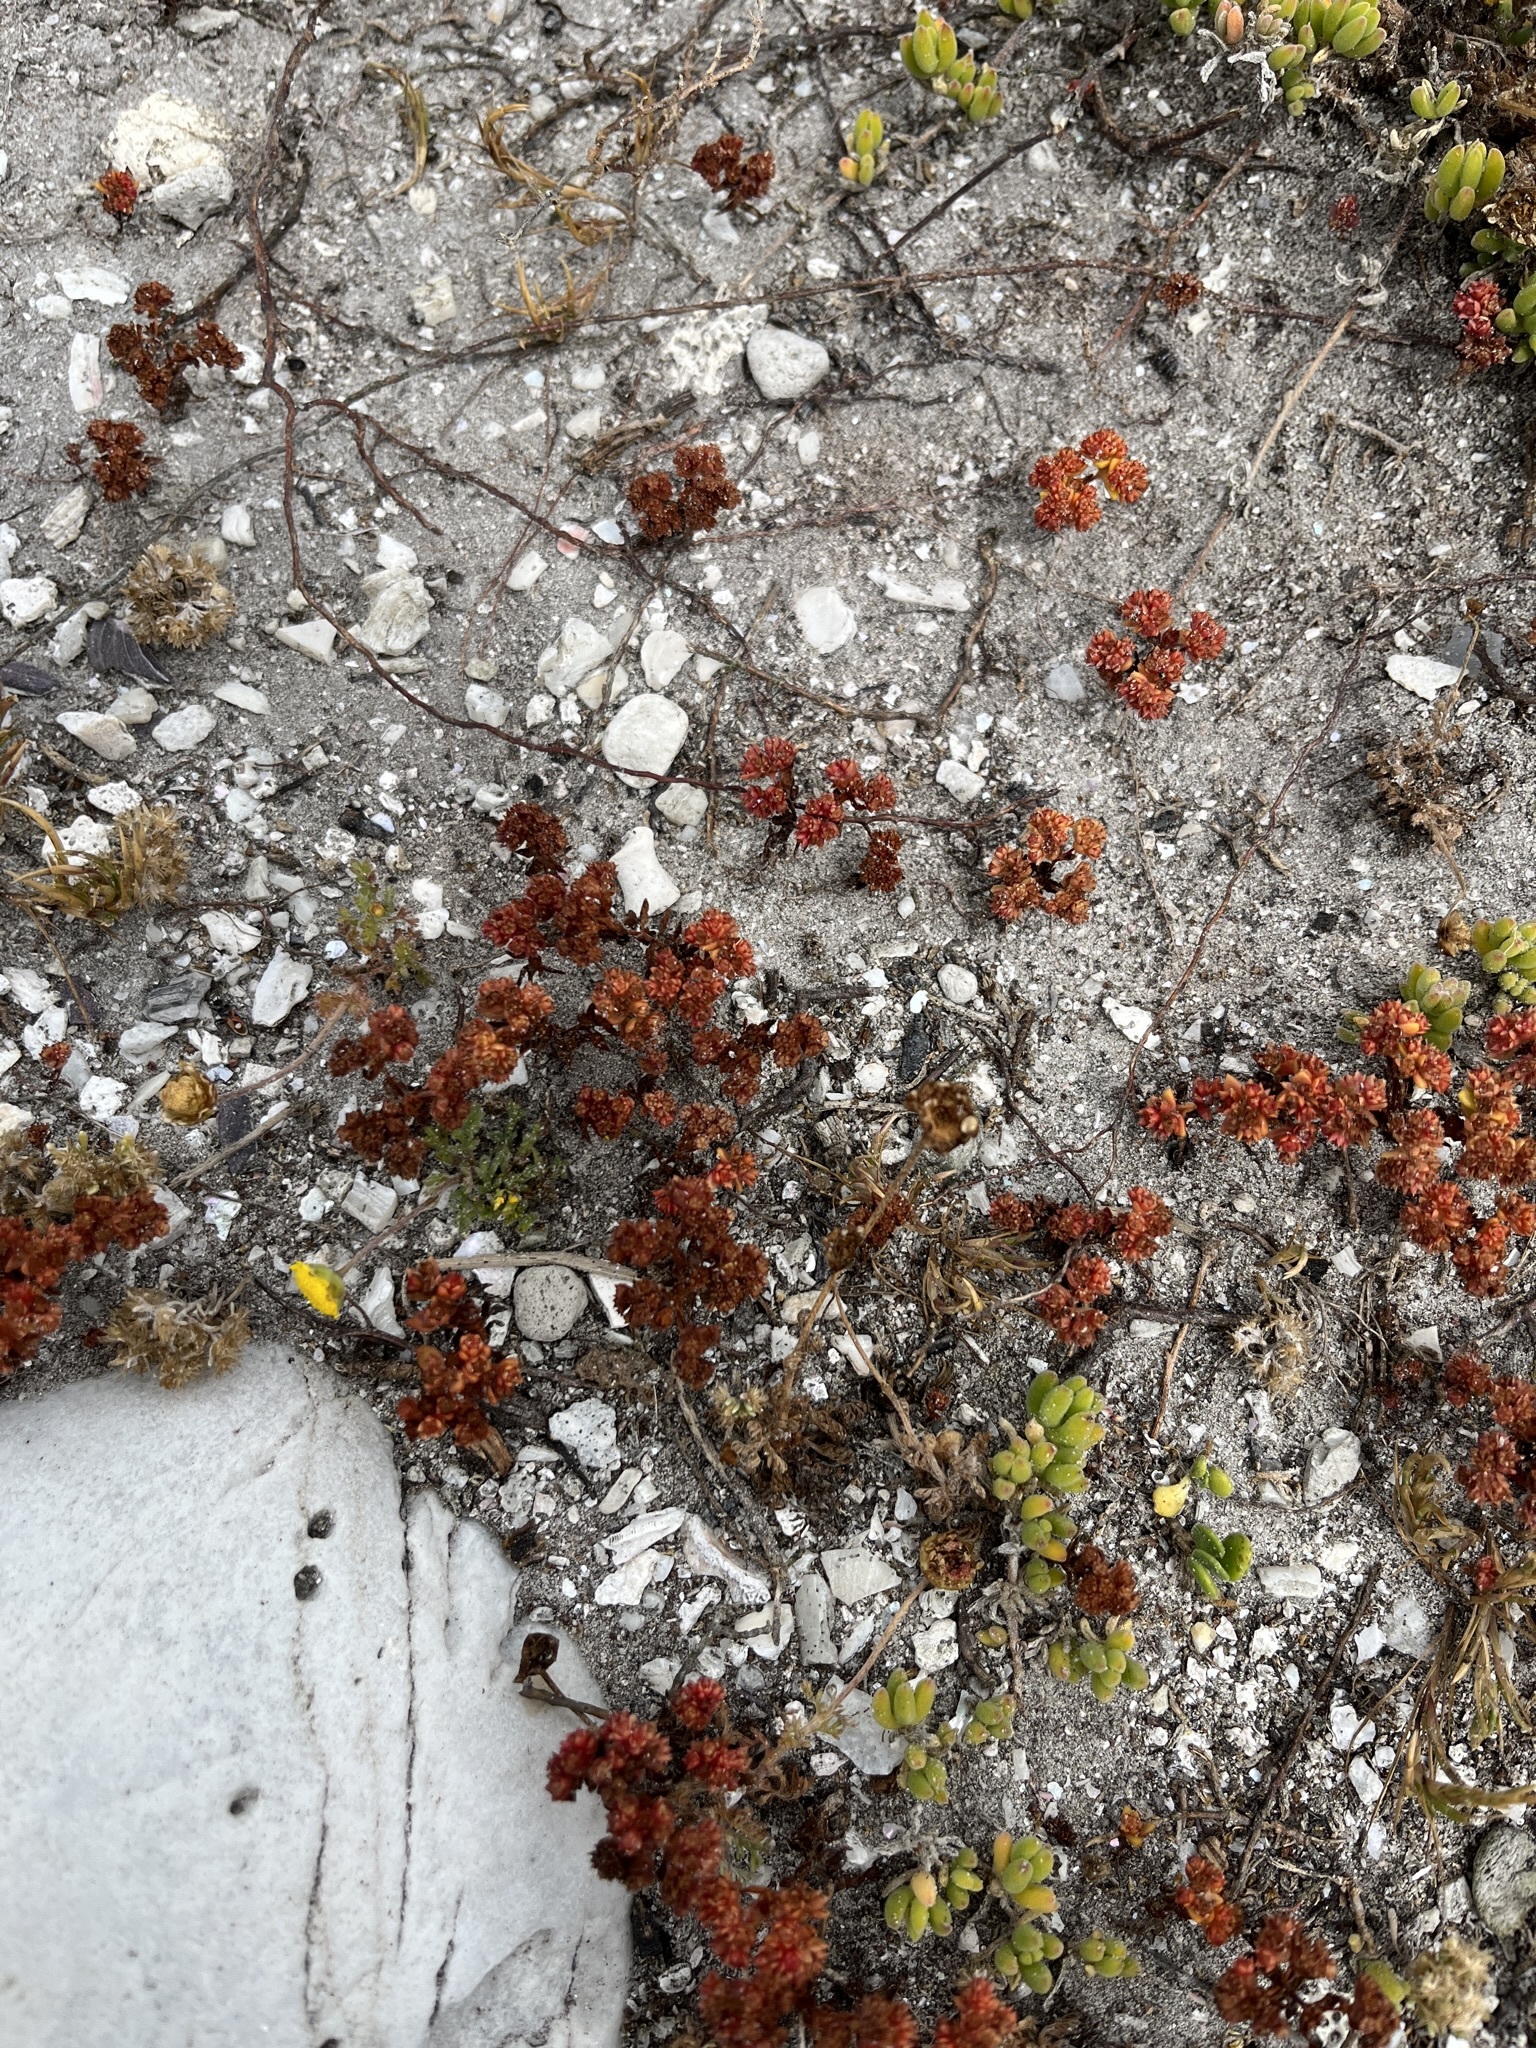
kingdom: Plantae
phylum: Tracheophyta
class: Magnoliopsida
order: Saxifragales
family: Crassulaceae
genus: Crassula
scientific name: Crassula glomerata
